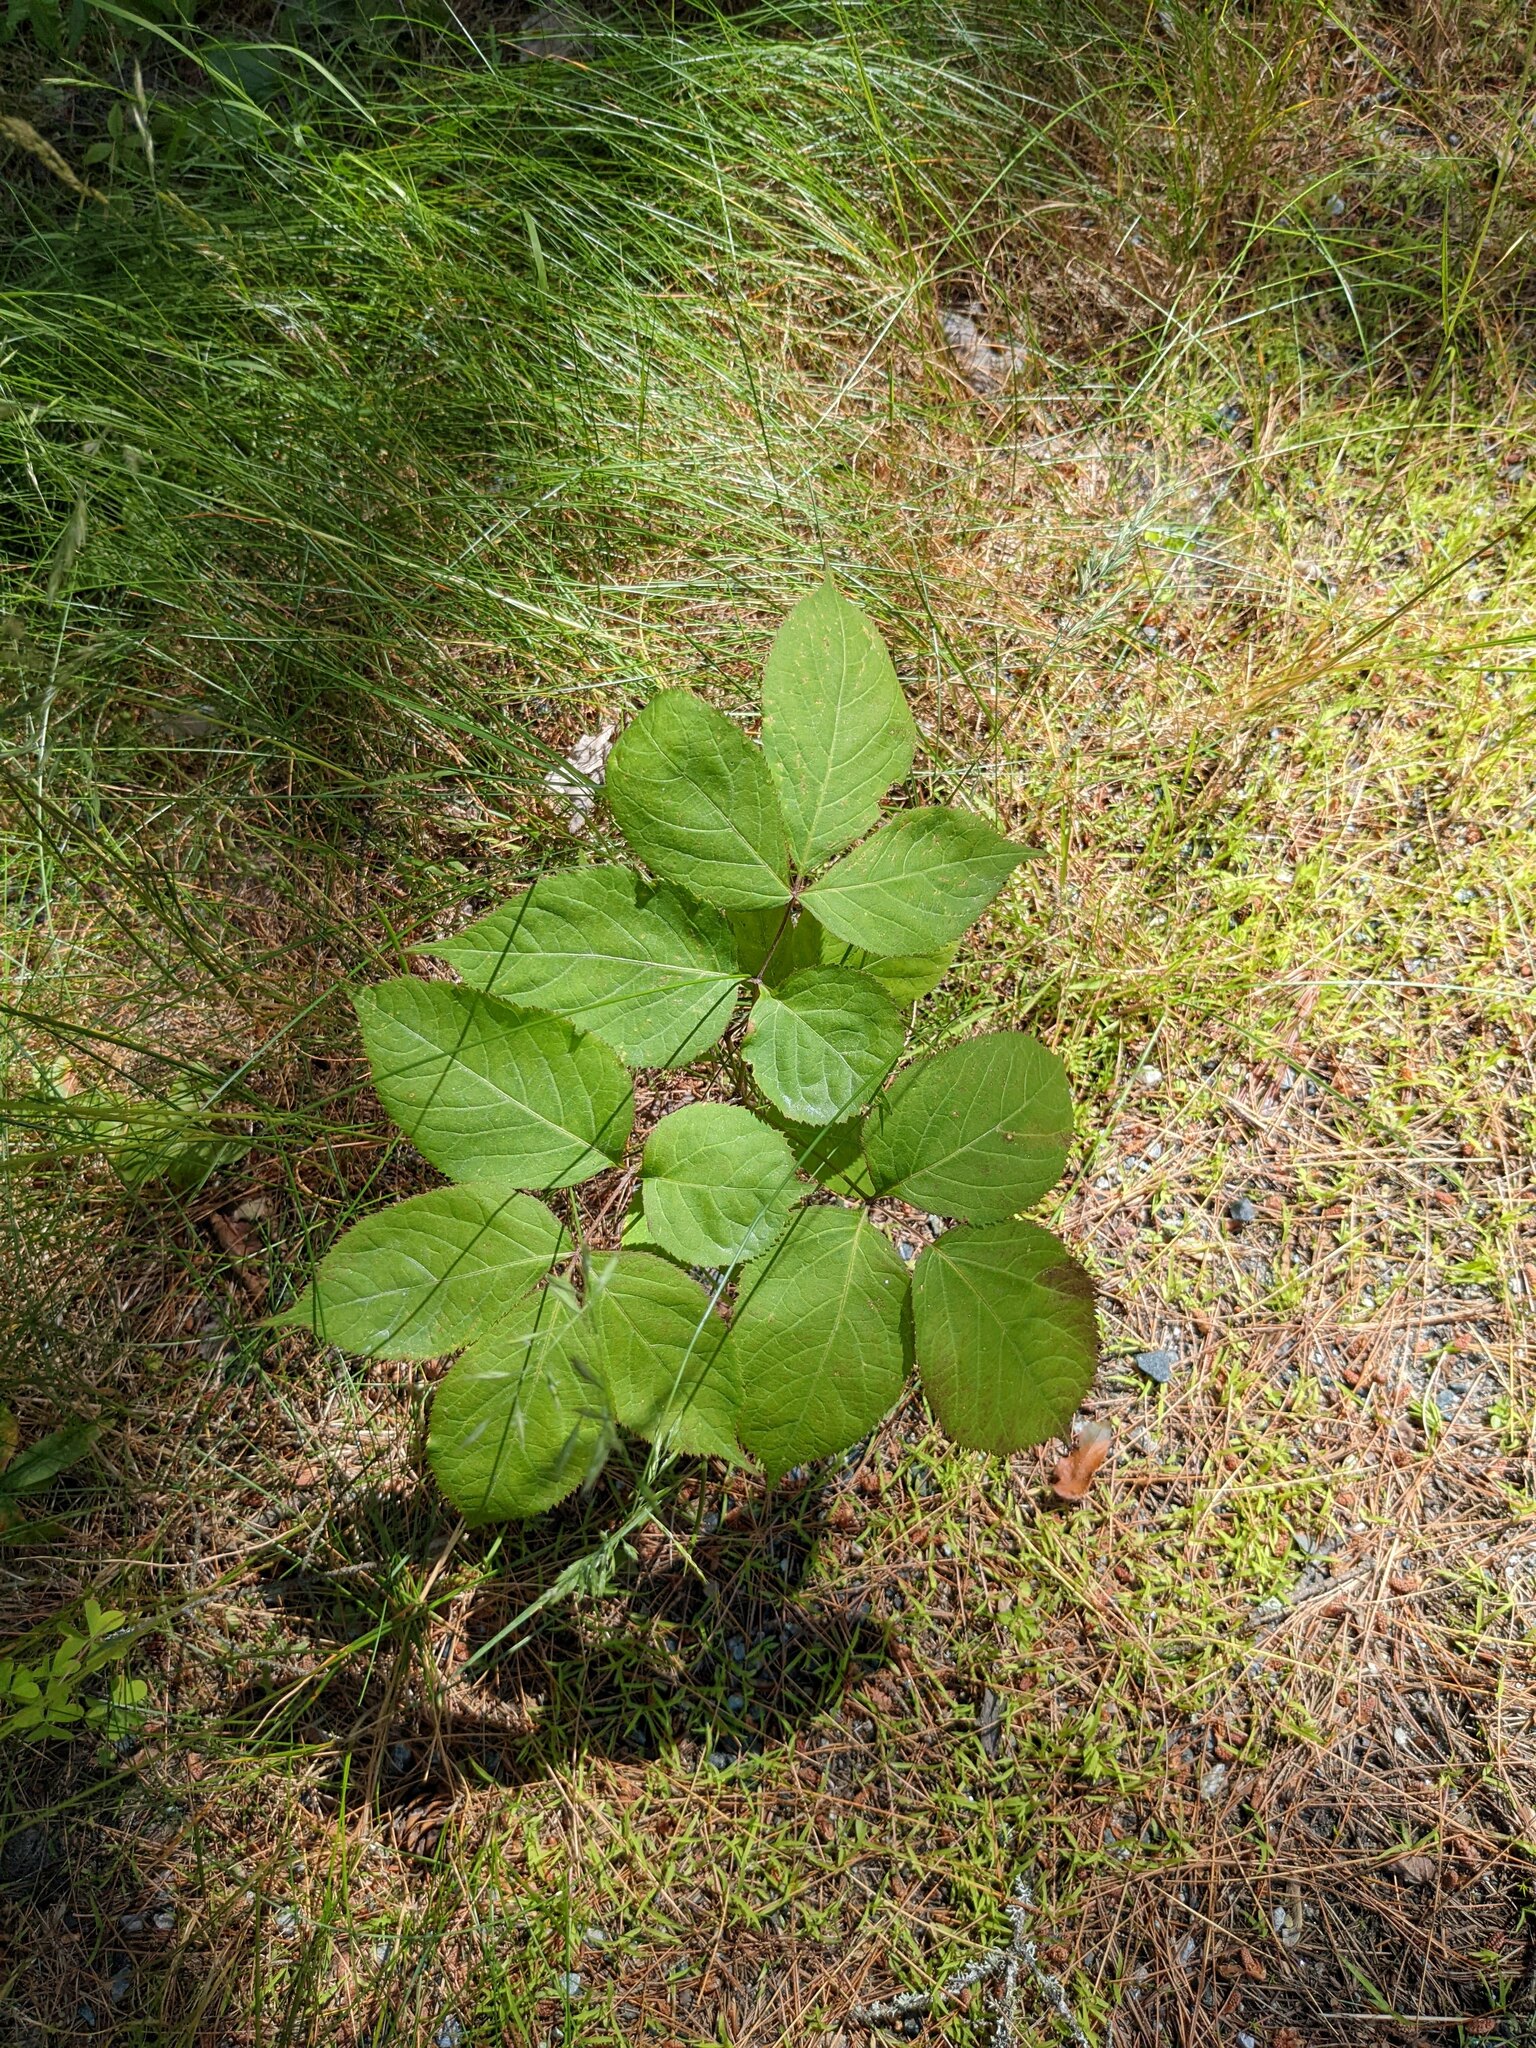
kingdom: Plantae
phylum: Tracheophyta
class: Magnoliopsida
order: Apiales
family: Araliaceae
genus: Aralia
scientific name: Aralia nudicaulis
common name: Wild sarsaparilla
